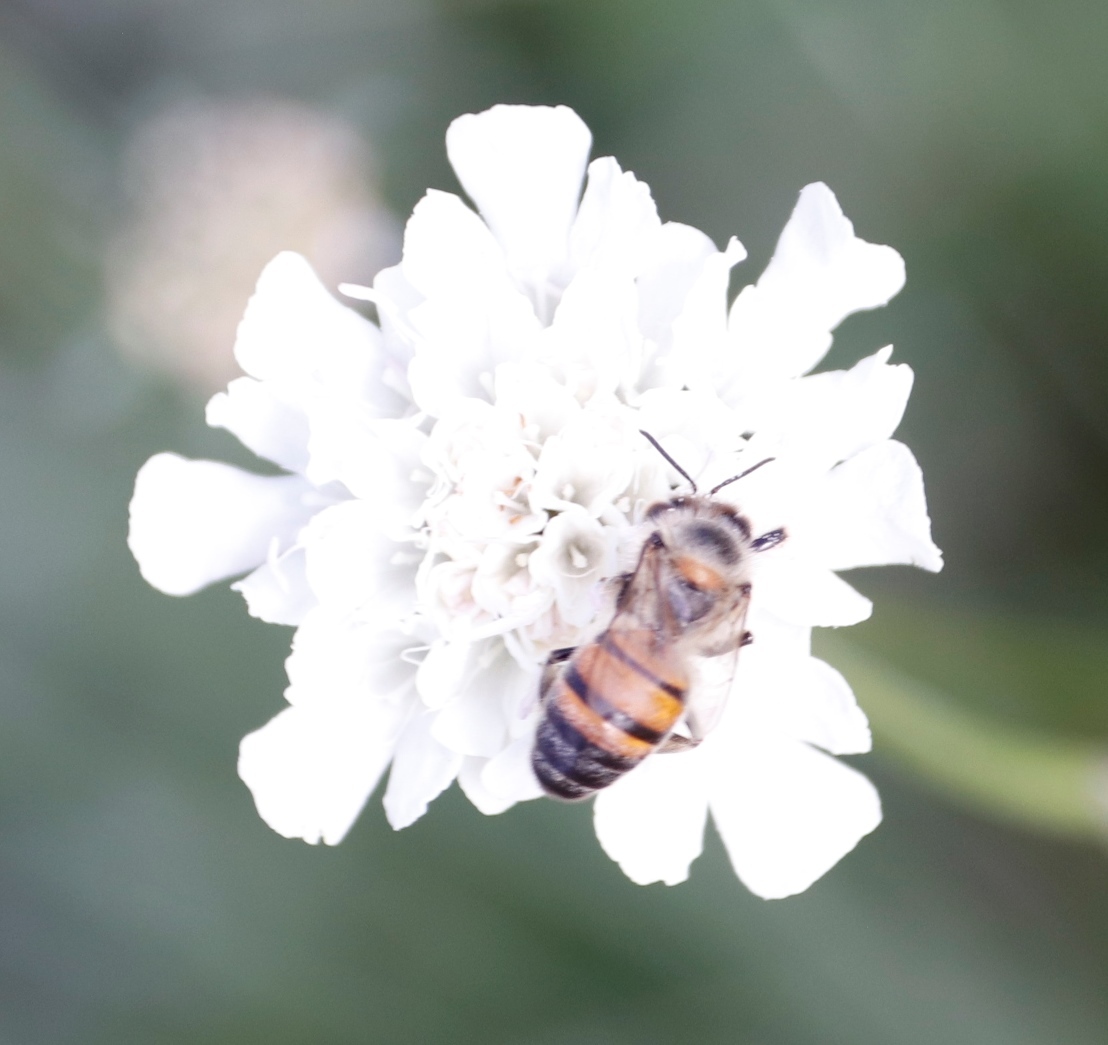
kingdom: Animalia
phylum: Arthropoda
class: Insecta
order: Hymenoptera
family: Apidae
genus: Apis
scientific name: Apis mellifera
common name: Honey bee
